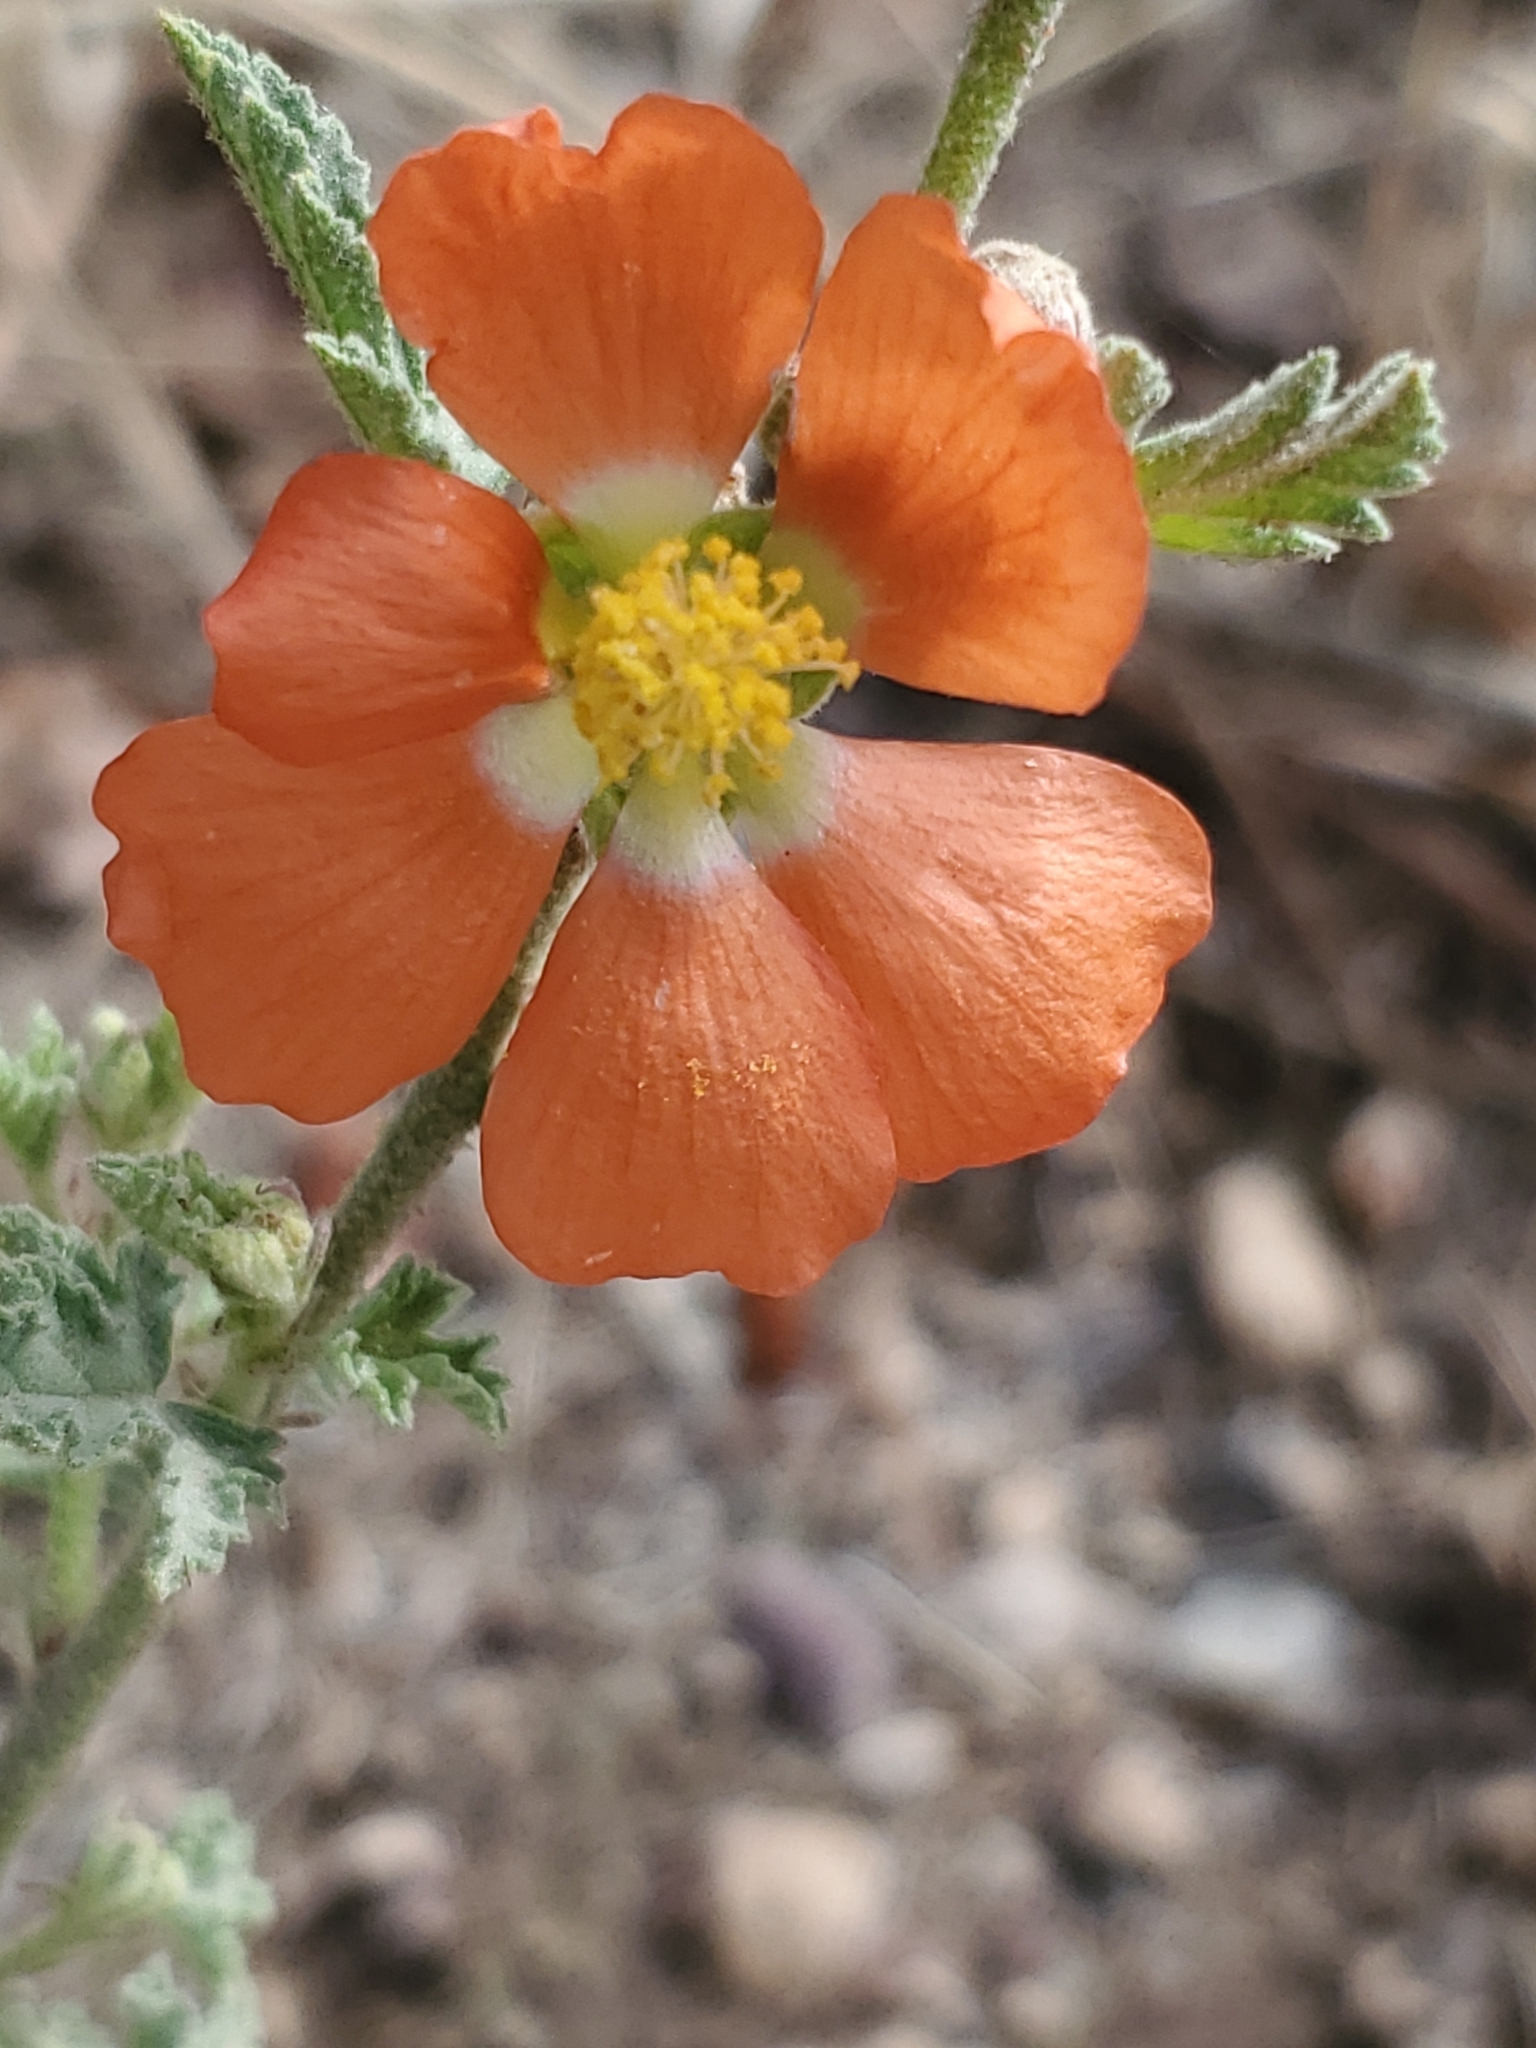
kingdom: Plantae
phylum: Tracheophyta
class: Magnoliopsida
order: Malvales
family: Malvaceae
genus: Sphaeralcea
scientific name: Sphaeralcea fendleri
